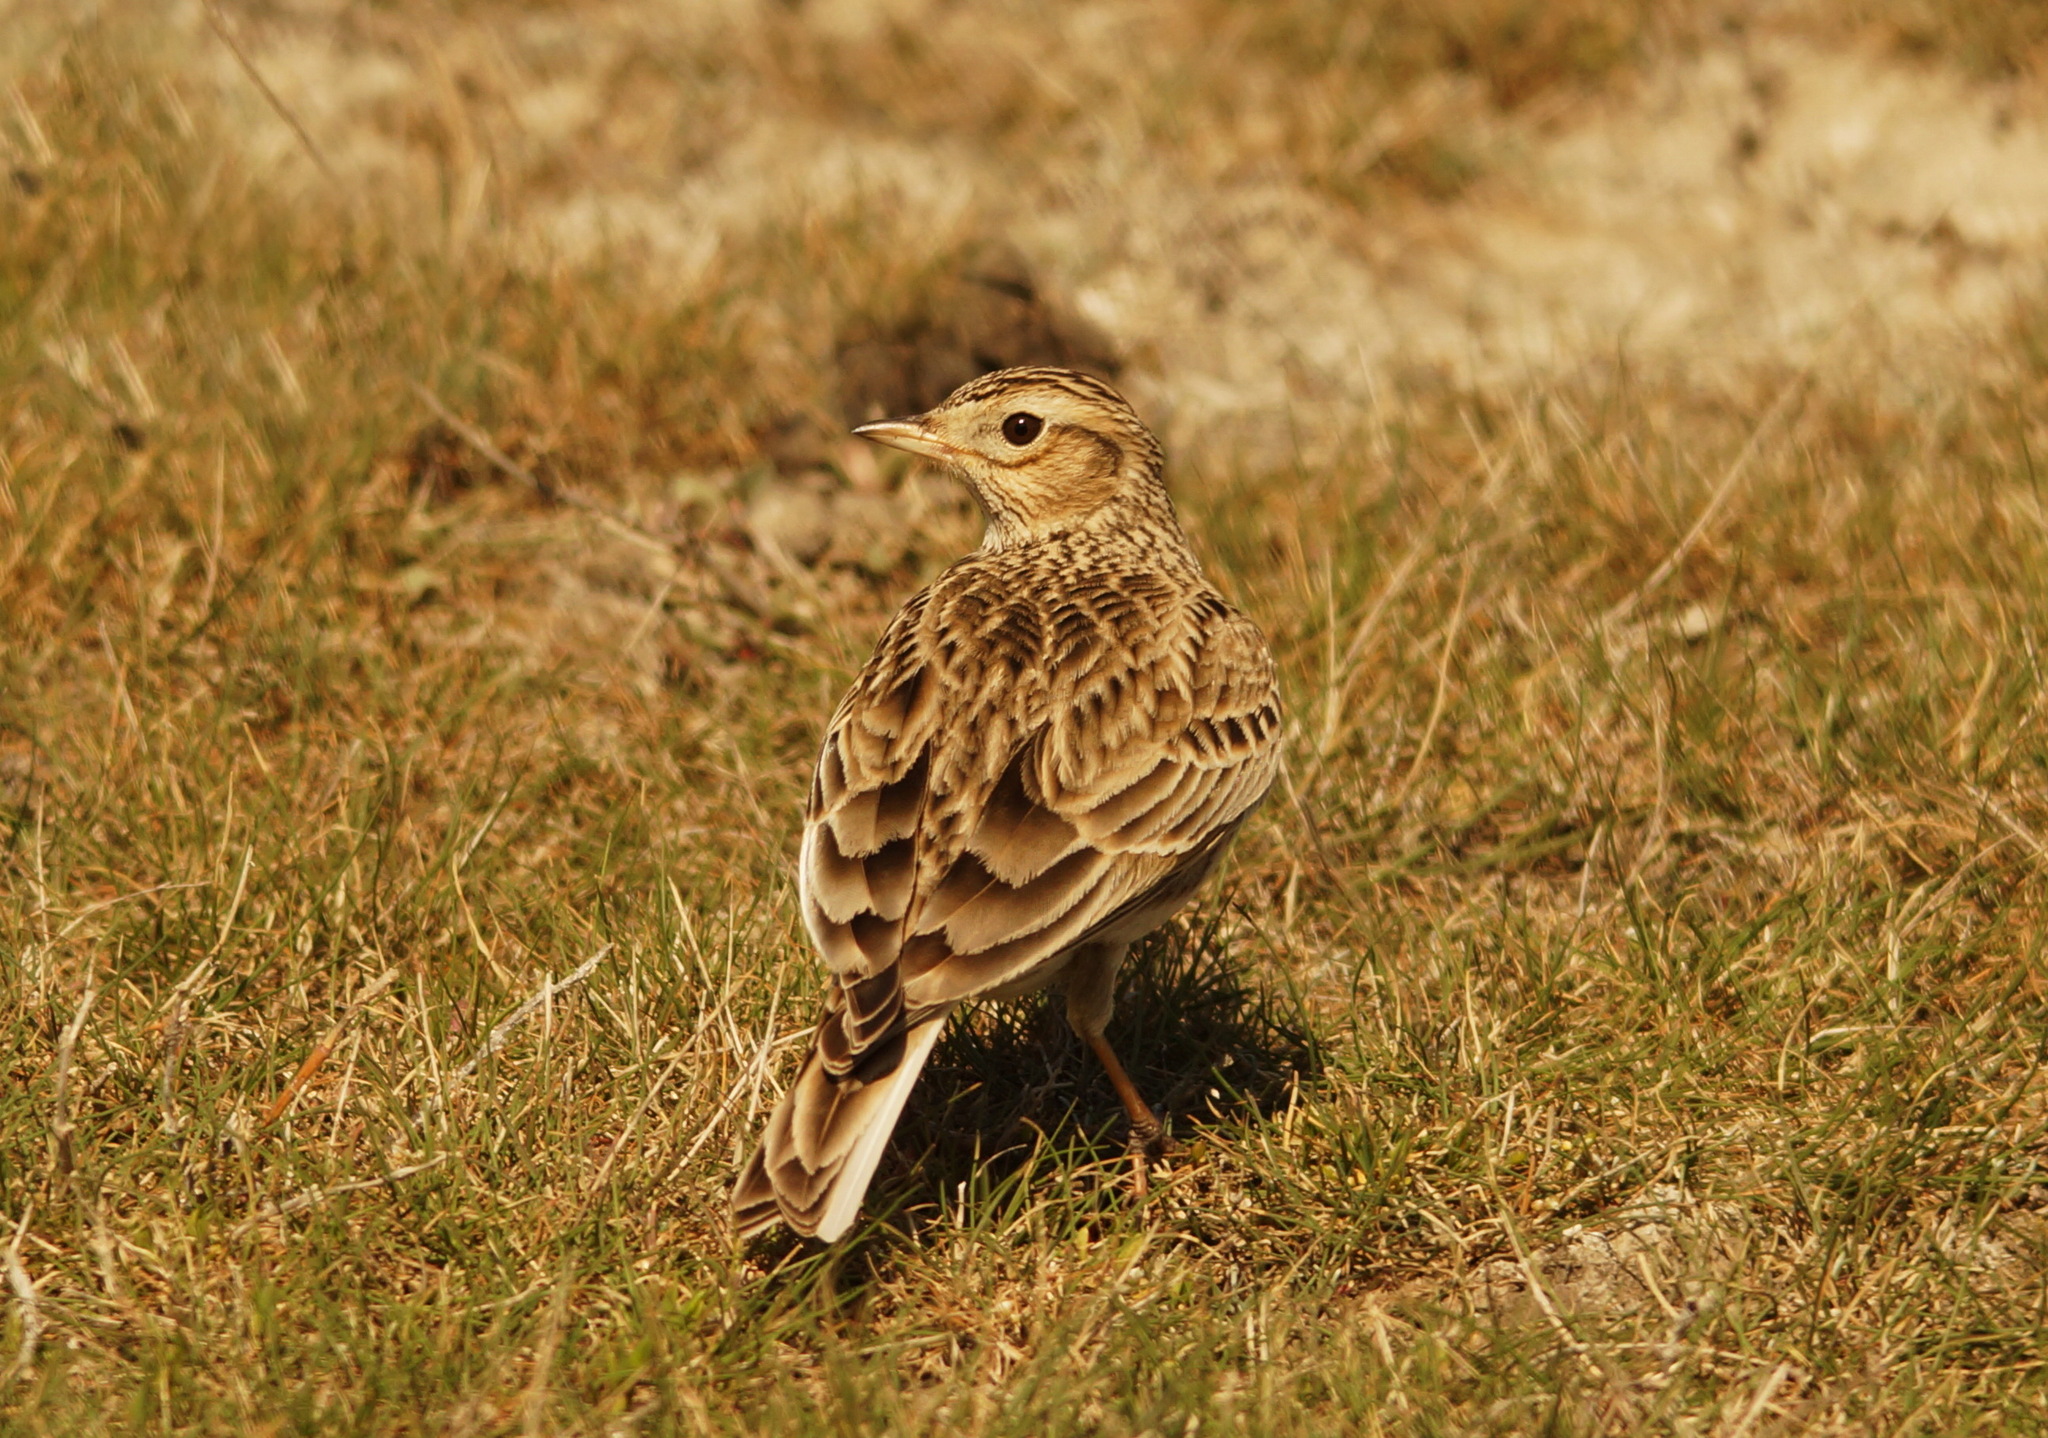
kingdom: Animalia
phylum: Chordata
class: Aves
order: Passeriformes
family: Alaudidae
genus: Alauda
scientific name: Alauda arvensis
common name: Eurasian skylark
